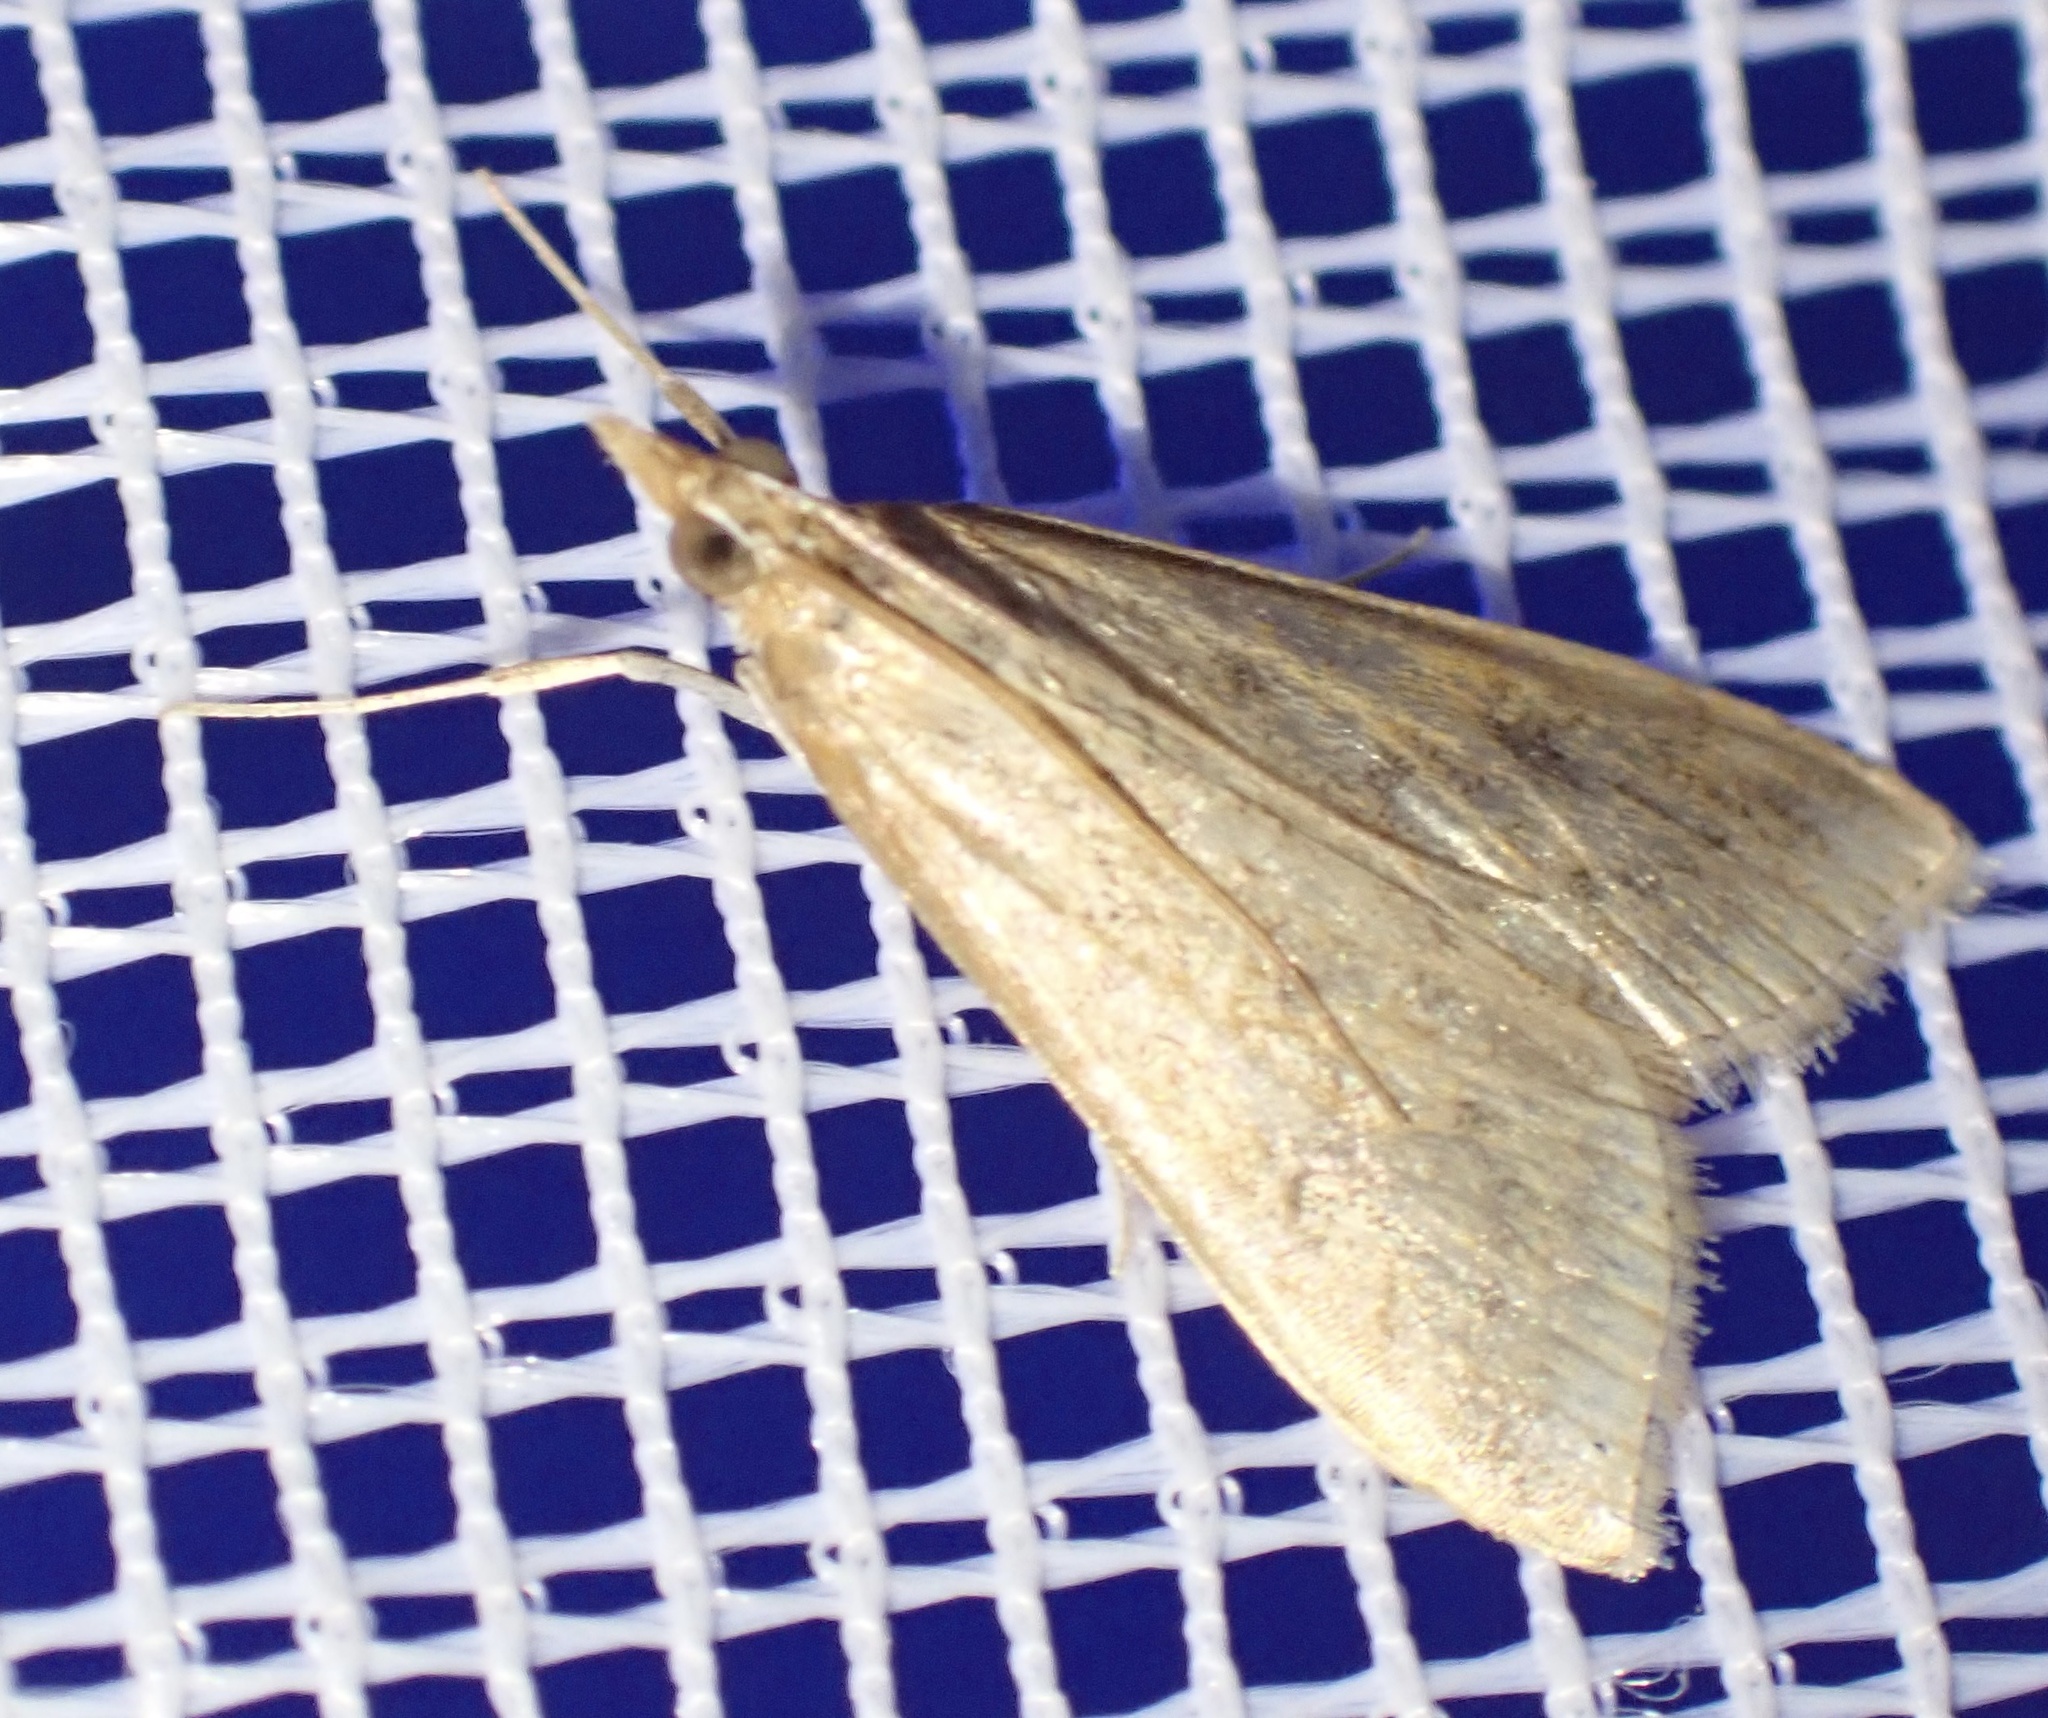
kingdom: Animalia
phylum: Arthropoda
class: Insecta
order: Lepidoptera
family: Crambidae
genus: Udea
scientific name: Udea ferrugalis
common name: Rusty dot
